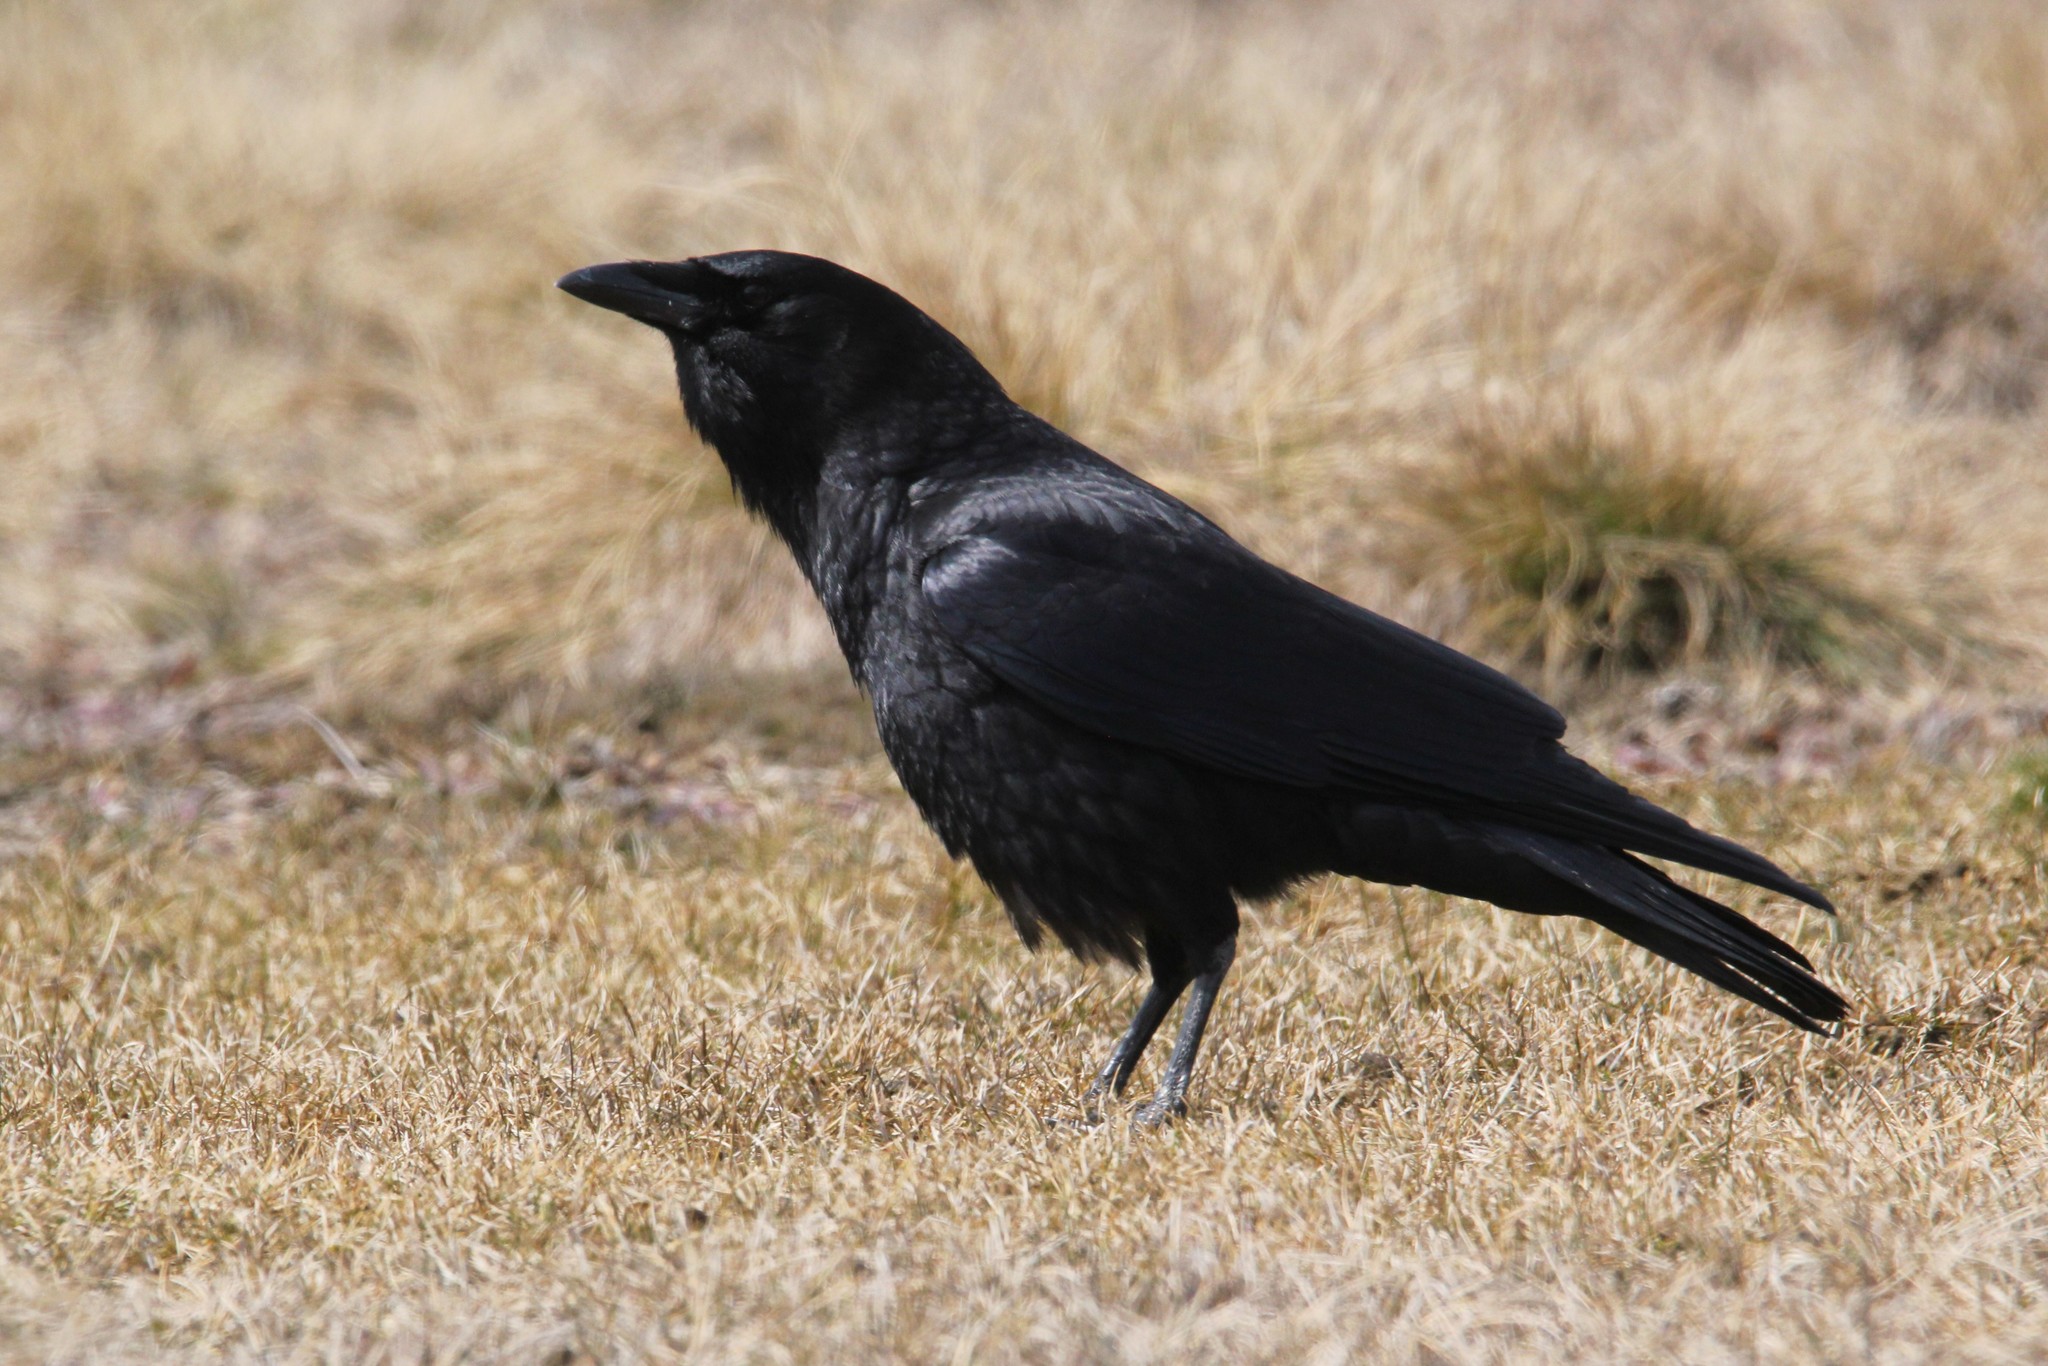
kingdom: Animalia
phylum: Chordata
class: Aves
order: Passeriformes
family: Corvidae
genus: Corvus
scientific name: Corvus brachyrhynchos
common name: American crow
